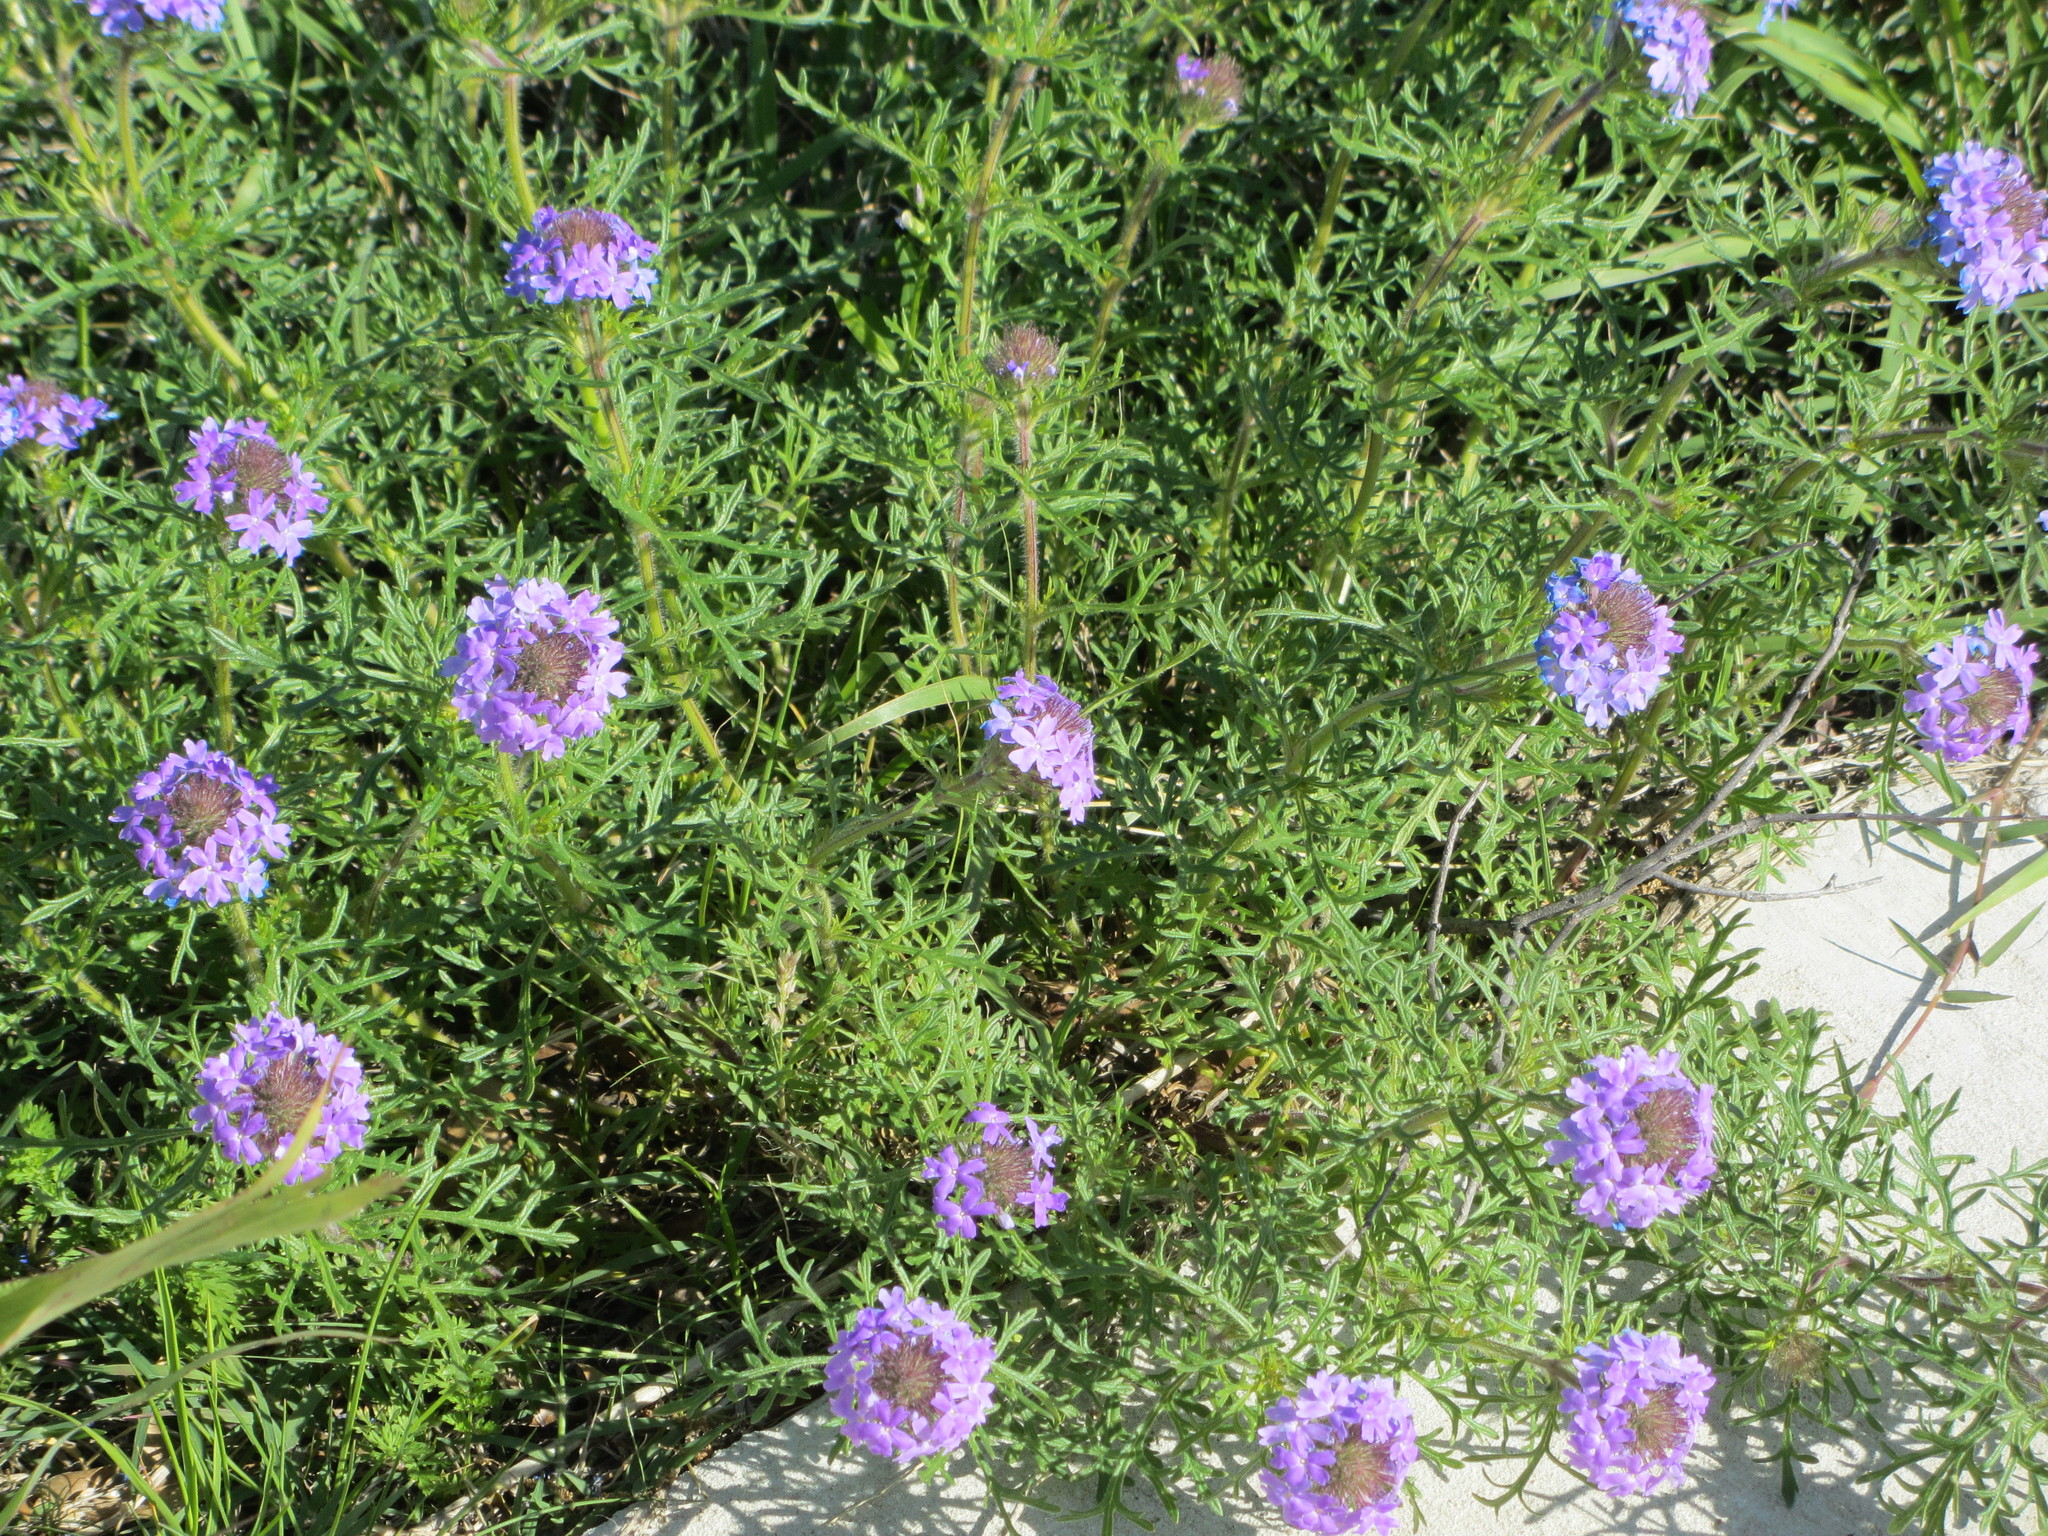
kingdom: Plantae
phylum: Tracheophyta
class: Magnoliopsida
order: Lamiales
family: Verbenaceae
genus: Verbena
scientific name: Verbena bipinnatifida
